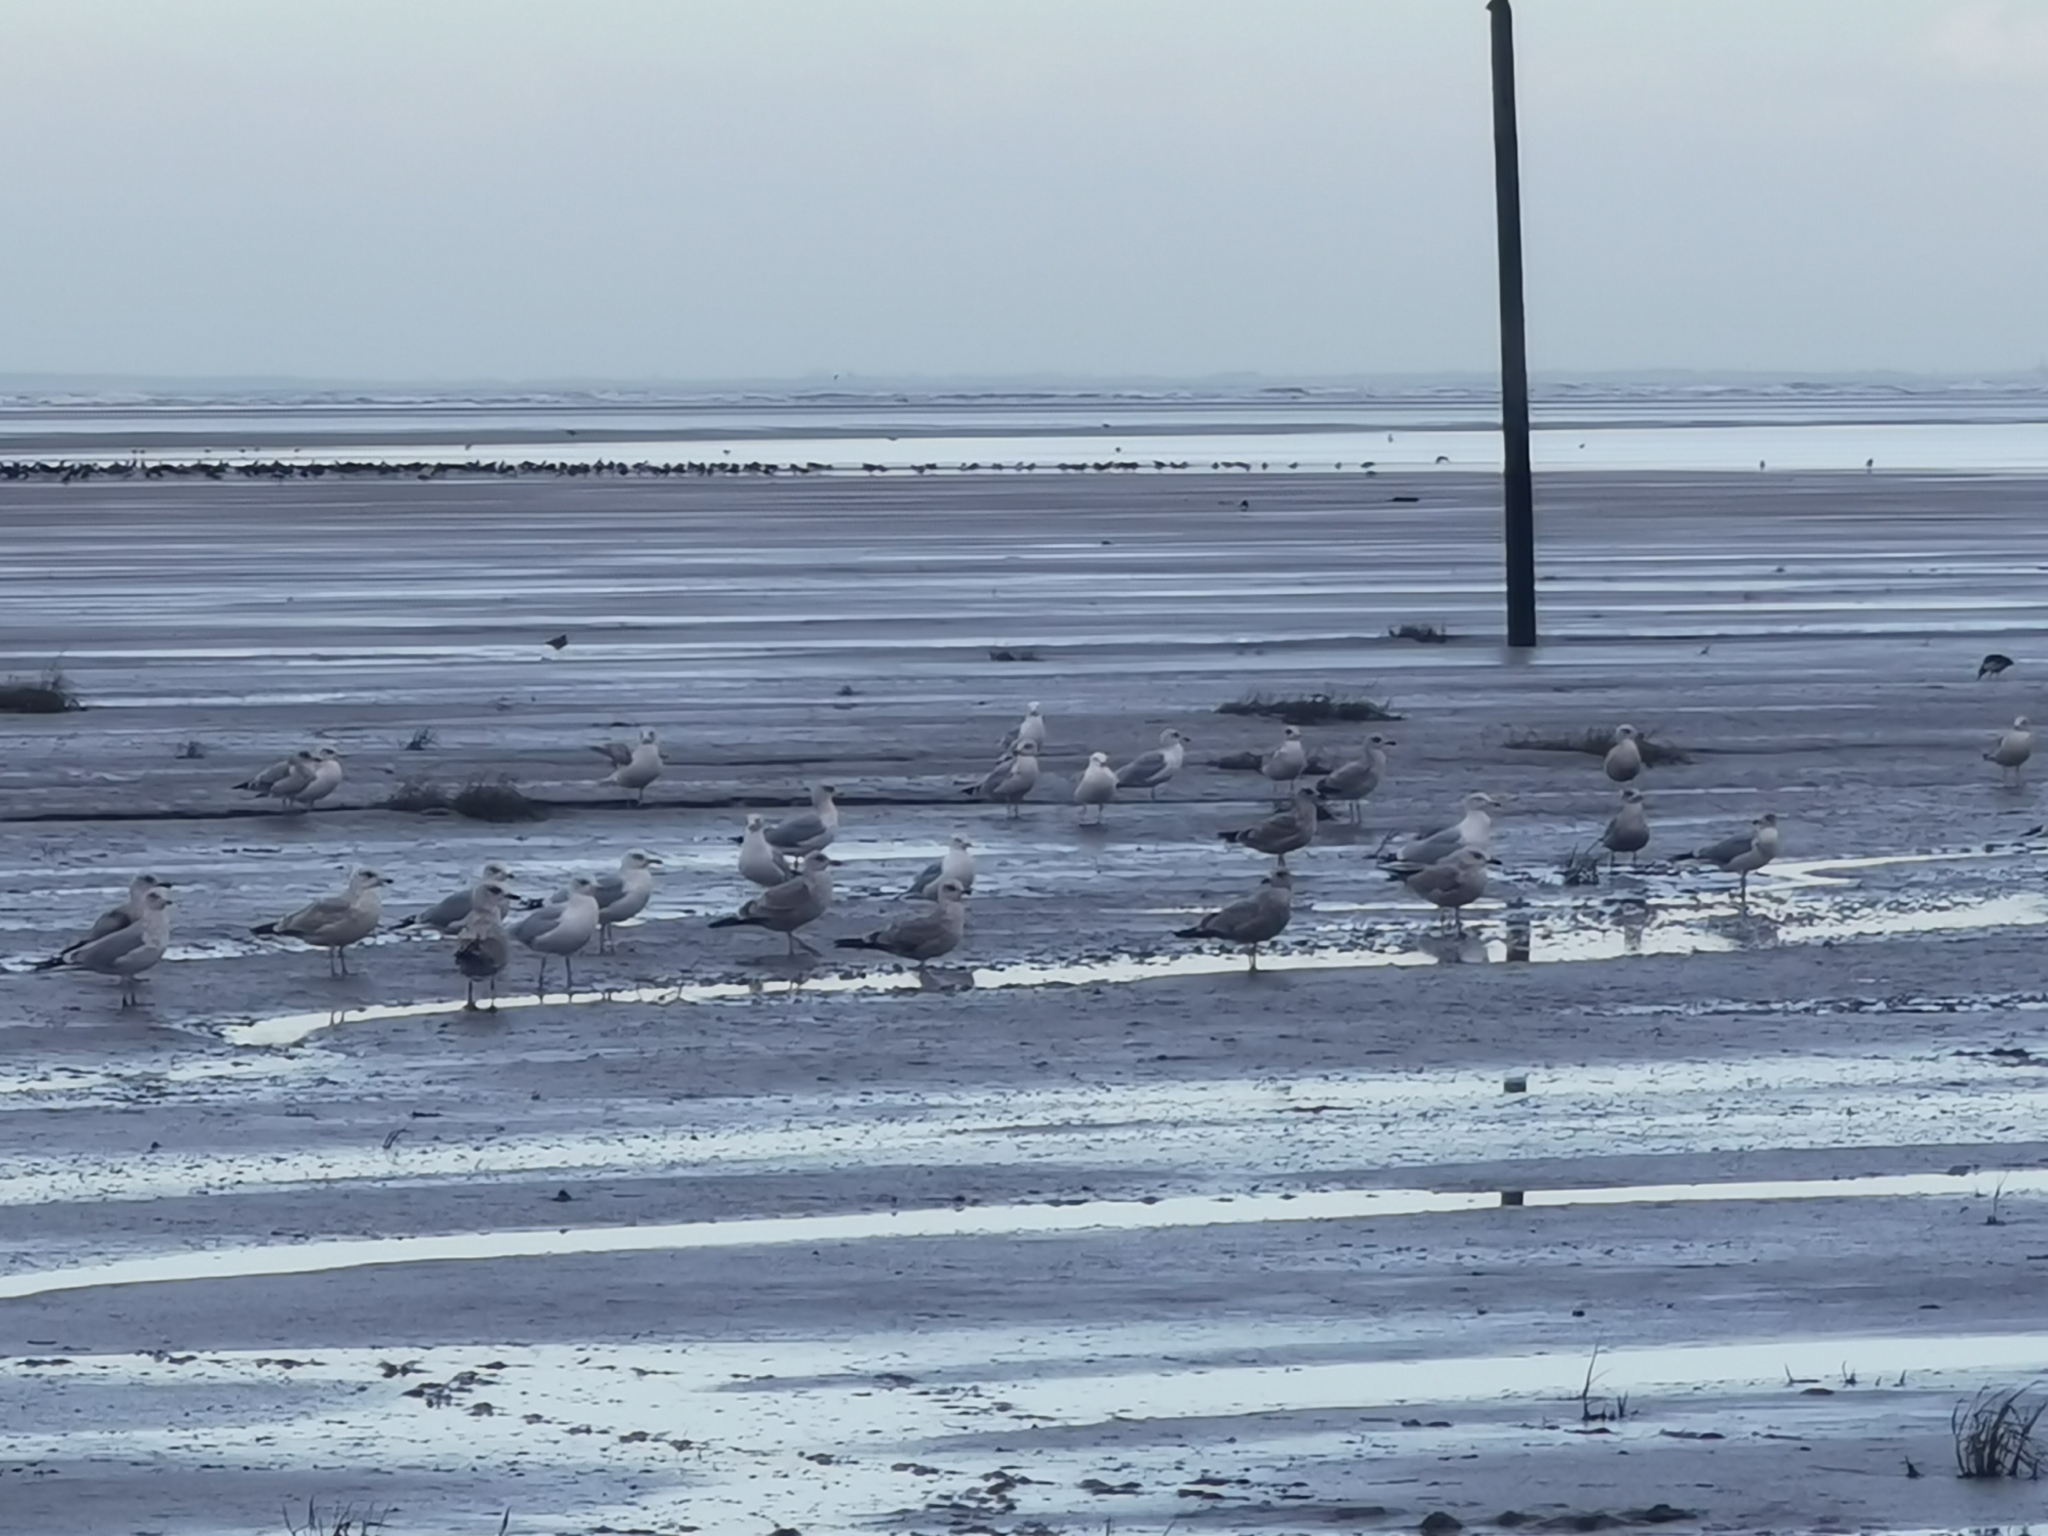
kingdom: Animalia
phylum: Chordata
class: Aves
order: Charadriiformes
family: Laridae
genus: Larus
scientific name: Larus argentatus
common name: Herring gull
